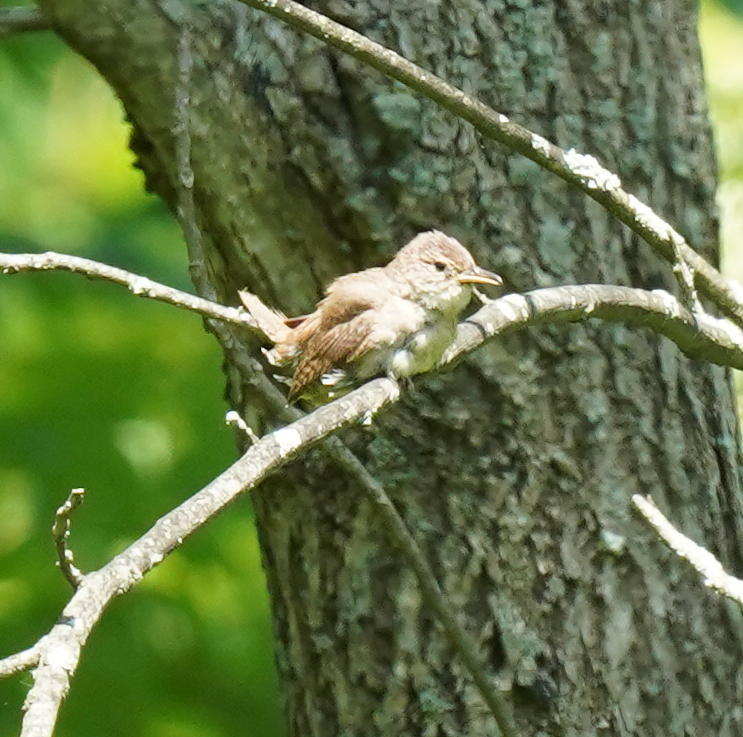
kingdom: Animalia
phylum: Chordata
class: Aves
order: Passeriformes
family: Troglodytidae
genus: Troglodytes
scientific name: Troglodytes aedon
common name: House wren
